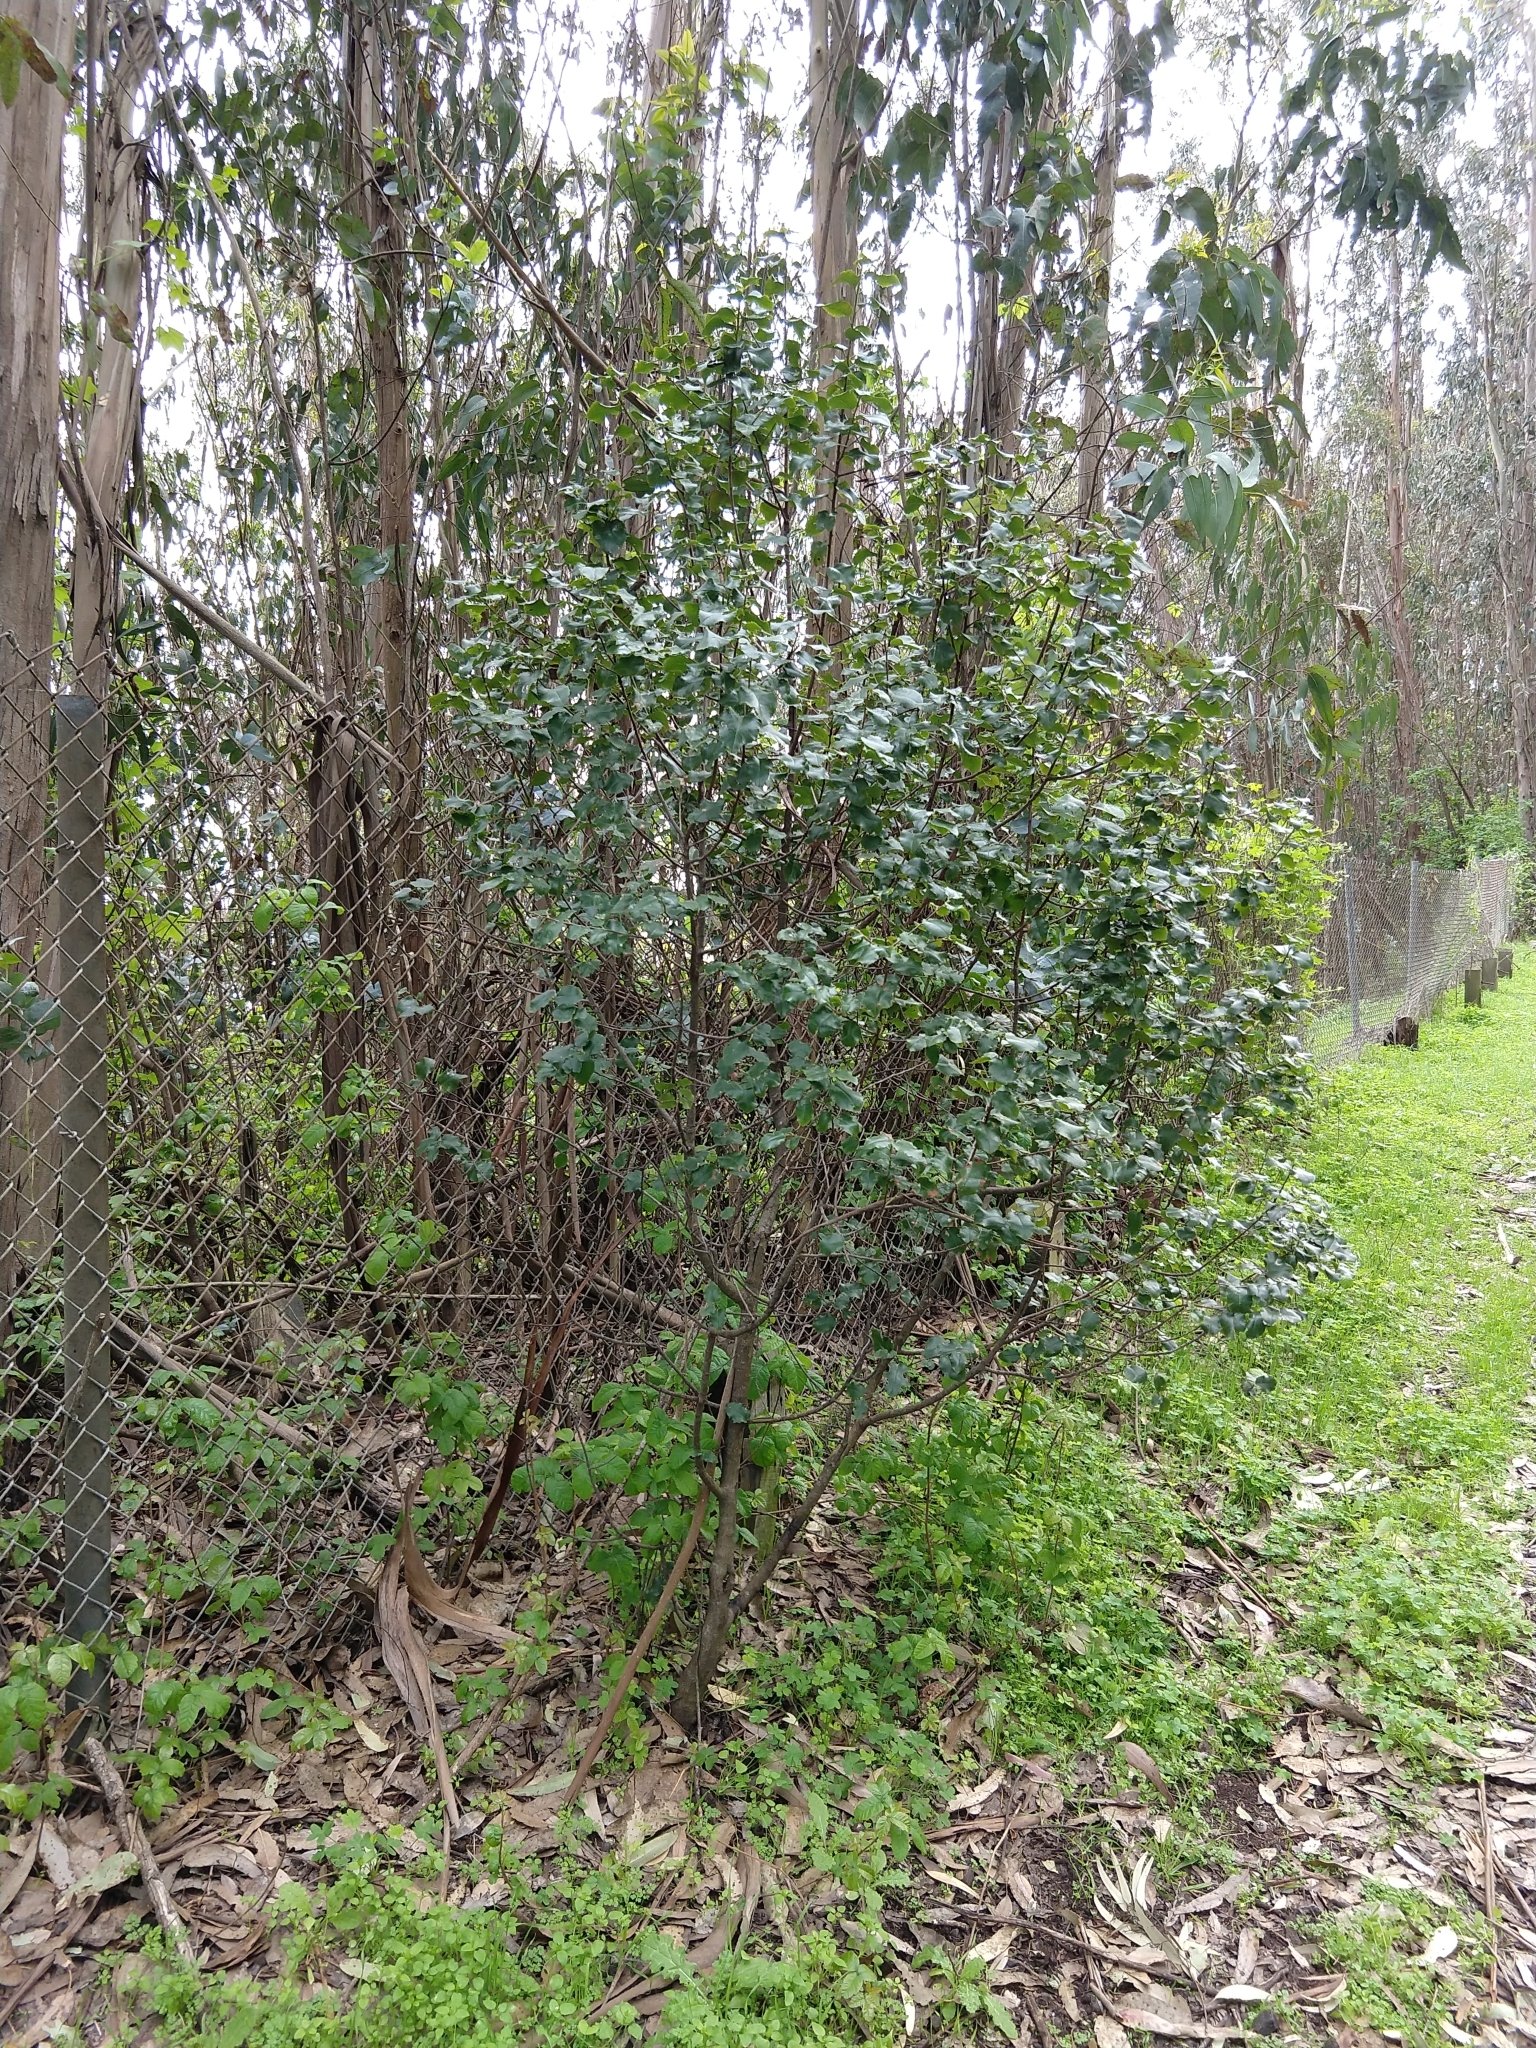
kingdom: Plantae
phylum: Tracheophyta
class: Magnoliopsida
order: Rosales
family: Rosaceae
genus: Prunus
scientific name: Prunus ilicifolia
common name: Hollyleaf cherry
